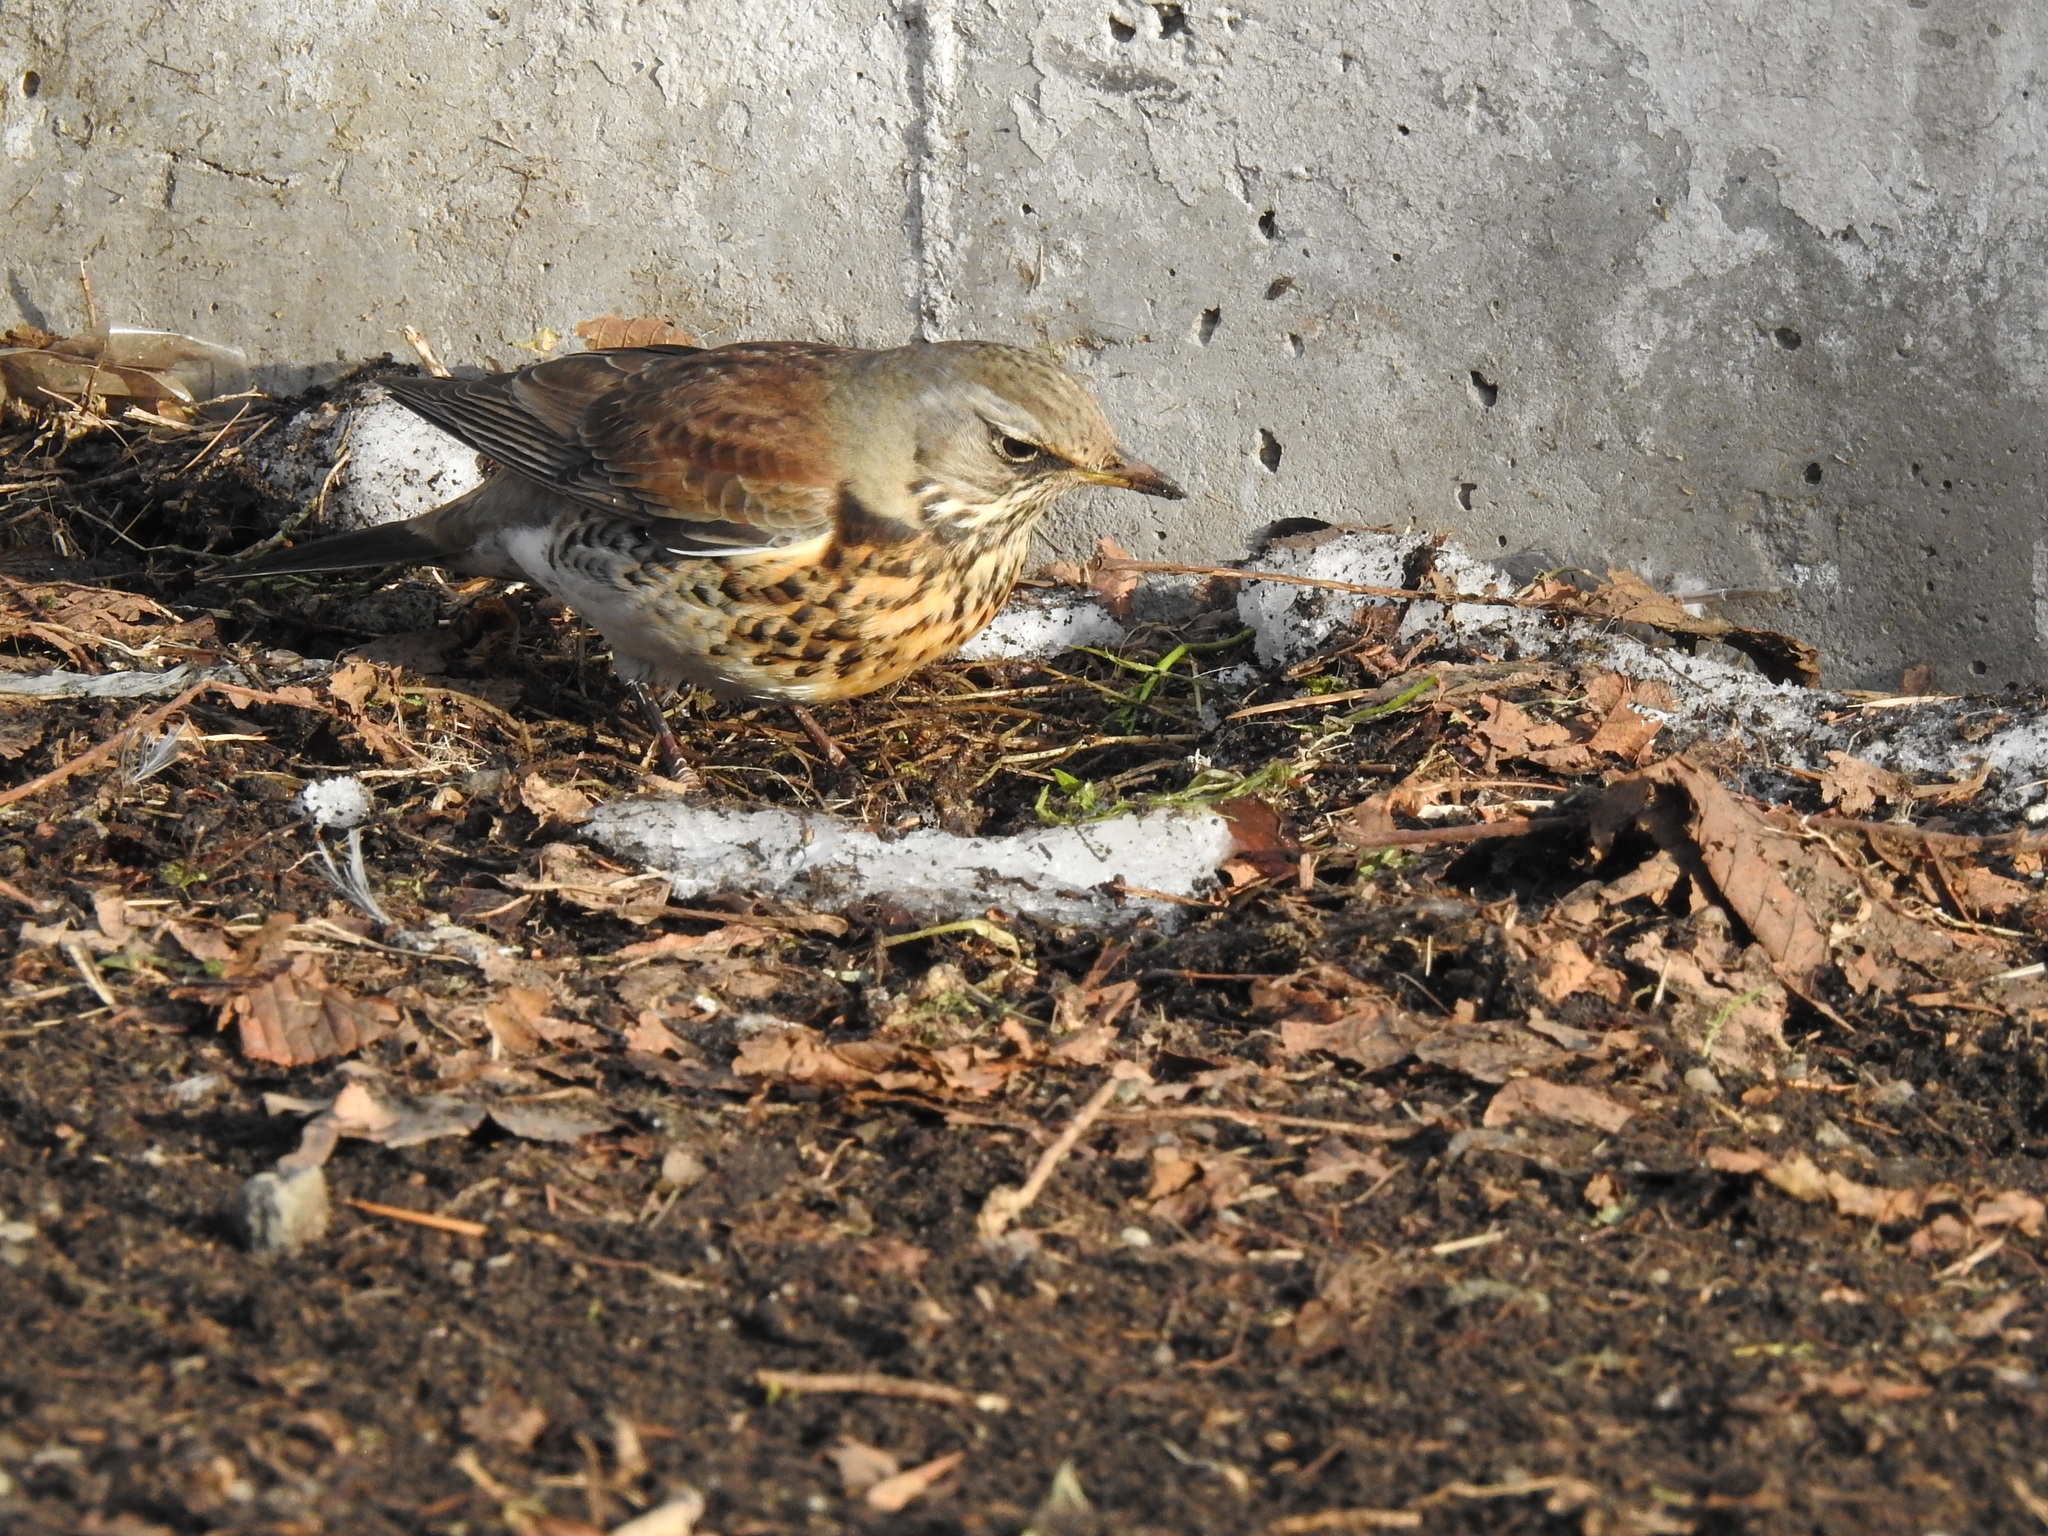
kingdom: Animalia
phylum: Chordata
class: Aves
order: Passeriformes
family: Turdidae
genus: Turdus
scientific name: Turdus pilaris
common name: Fieldfare
